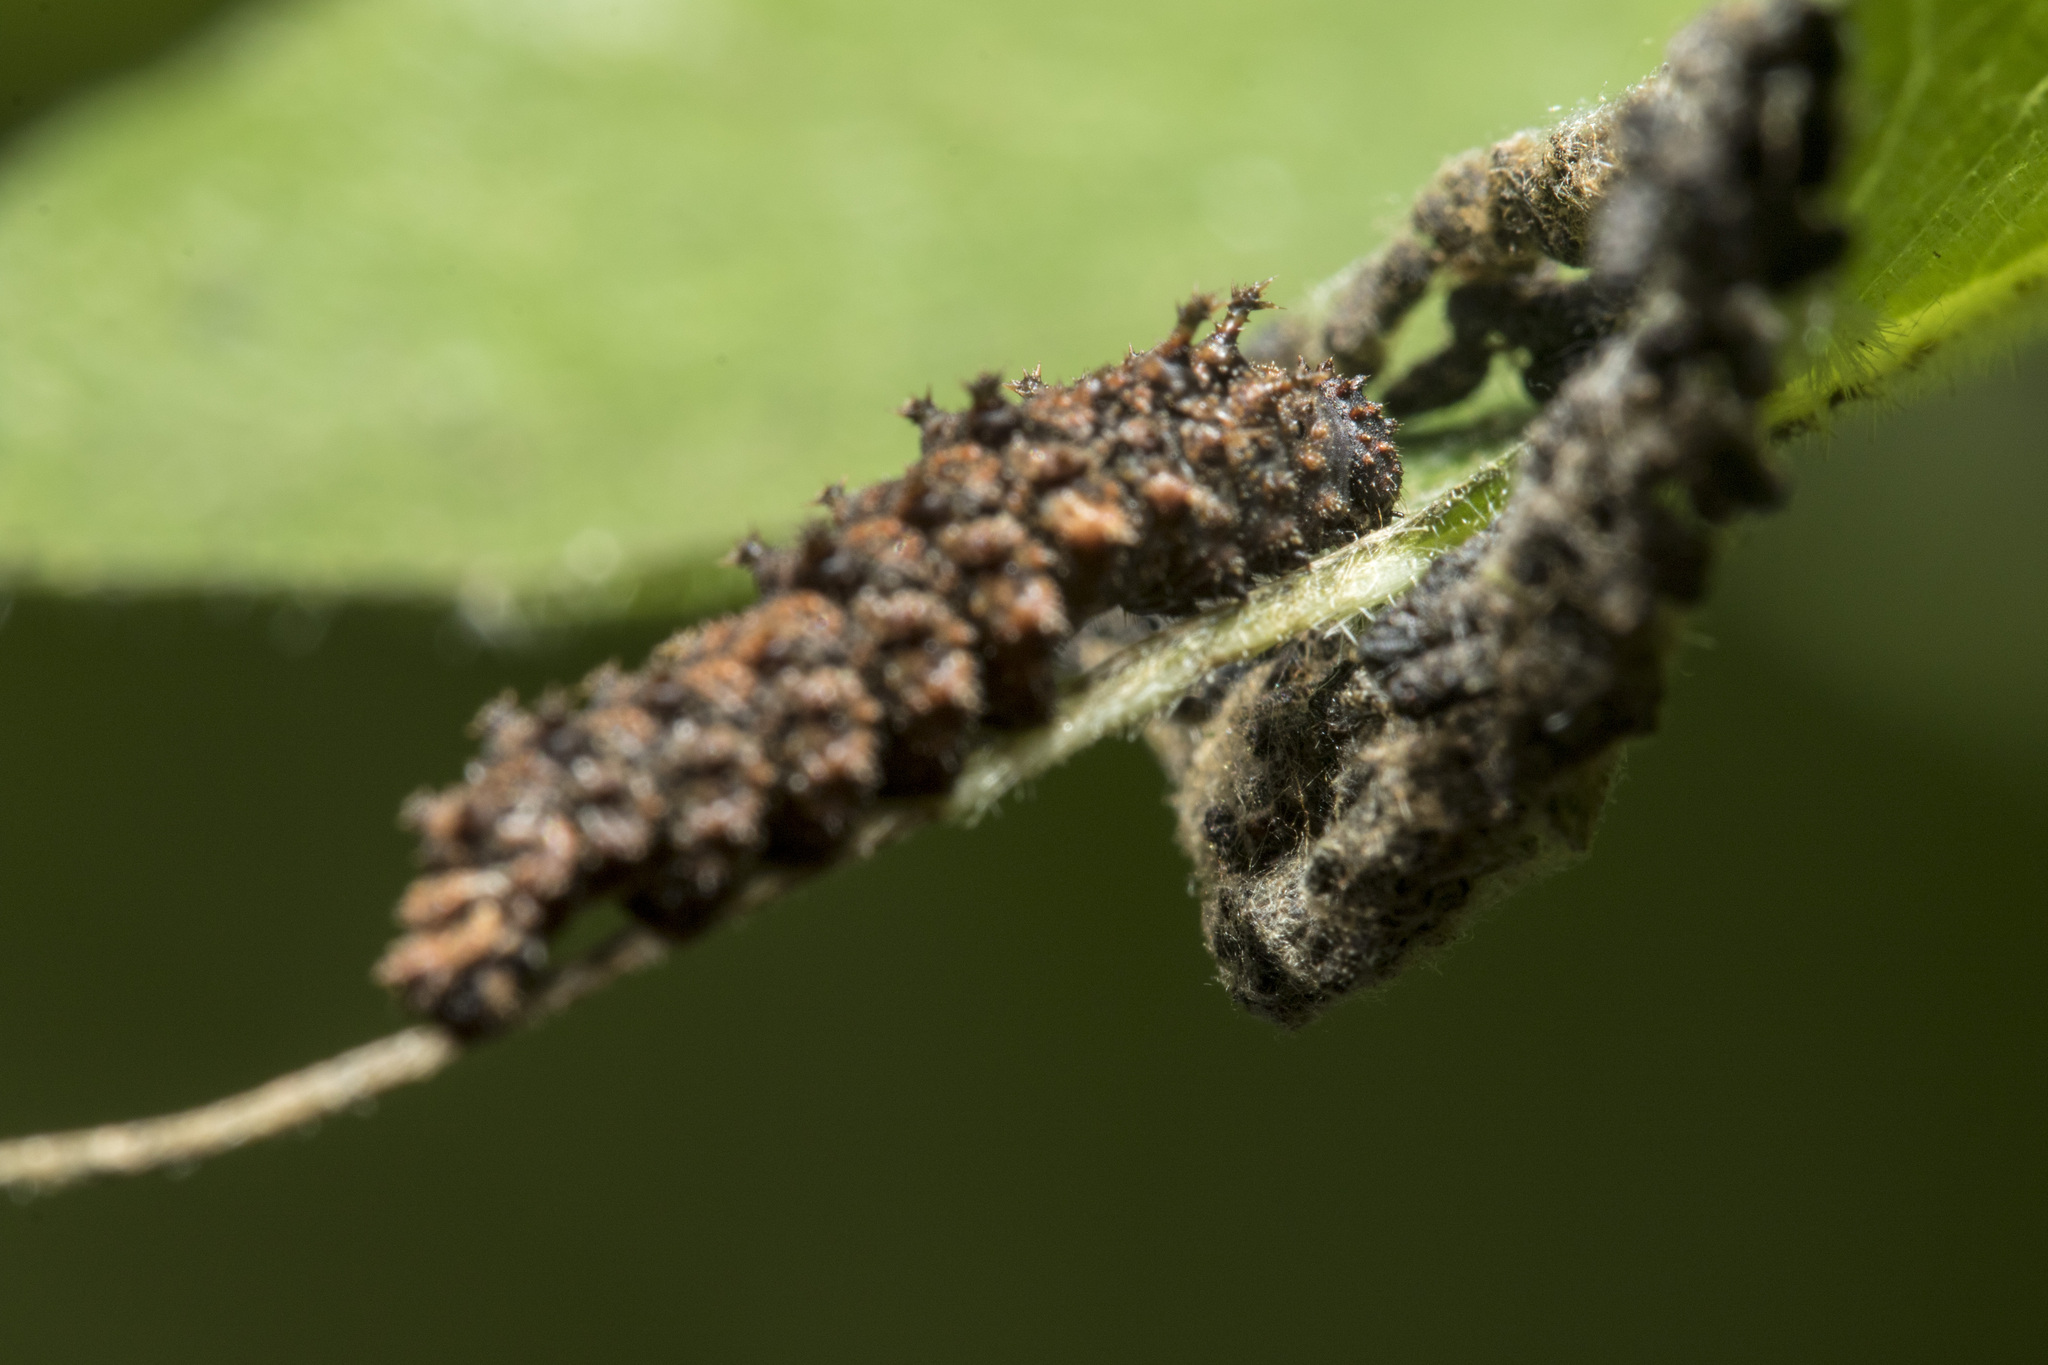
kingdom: Animalia
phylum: Arthropoda
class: Insecta
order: Lepidoptera
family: Nymphalidae
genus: Limenitis
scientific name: Limenitis Moduza procris
